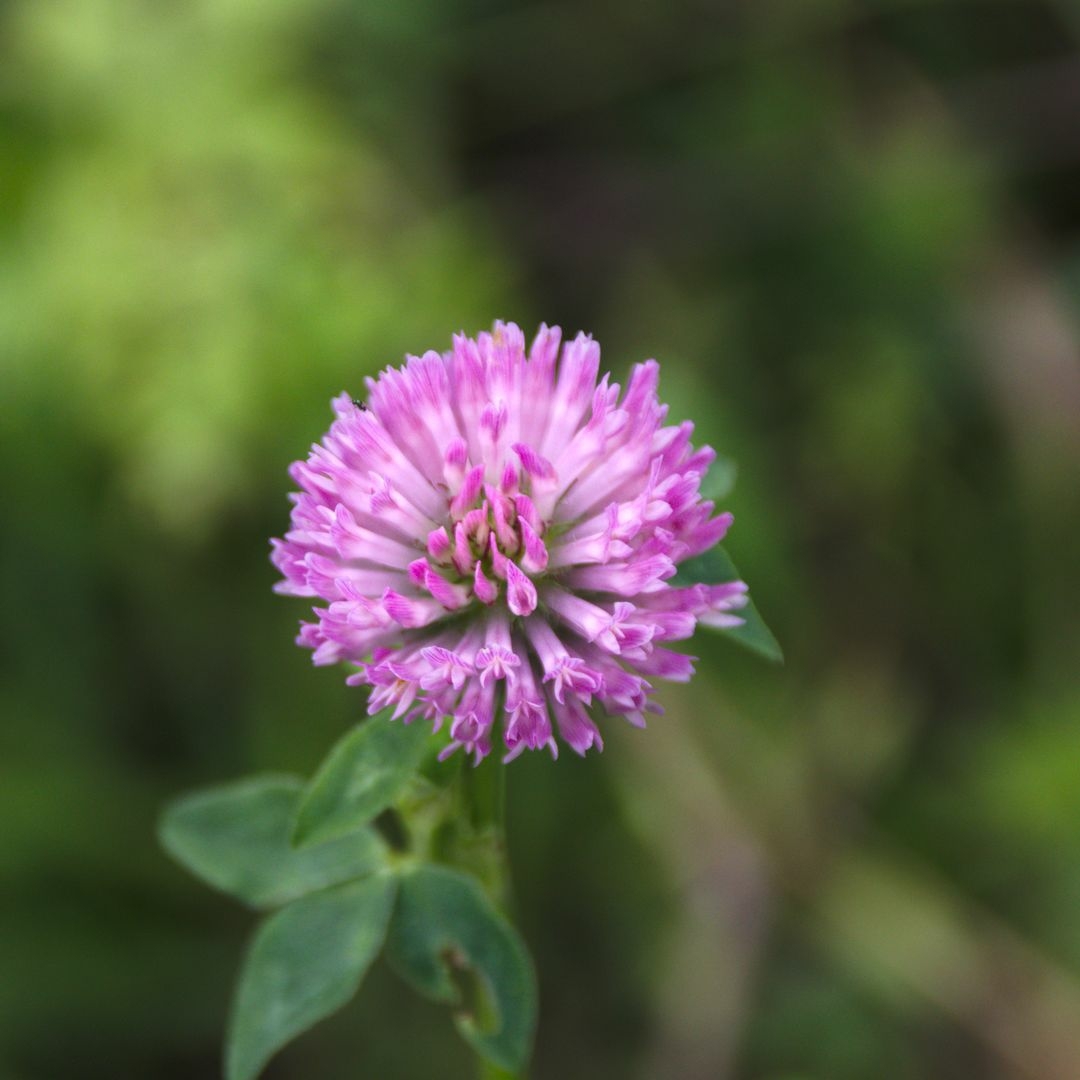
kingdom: Plantae
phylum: Tracheophyta
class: Magnoliopsida
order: Fabales
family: Fabaceae
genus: Trifolium
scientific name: Trifolium pratense
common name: Red clover
